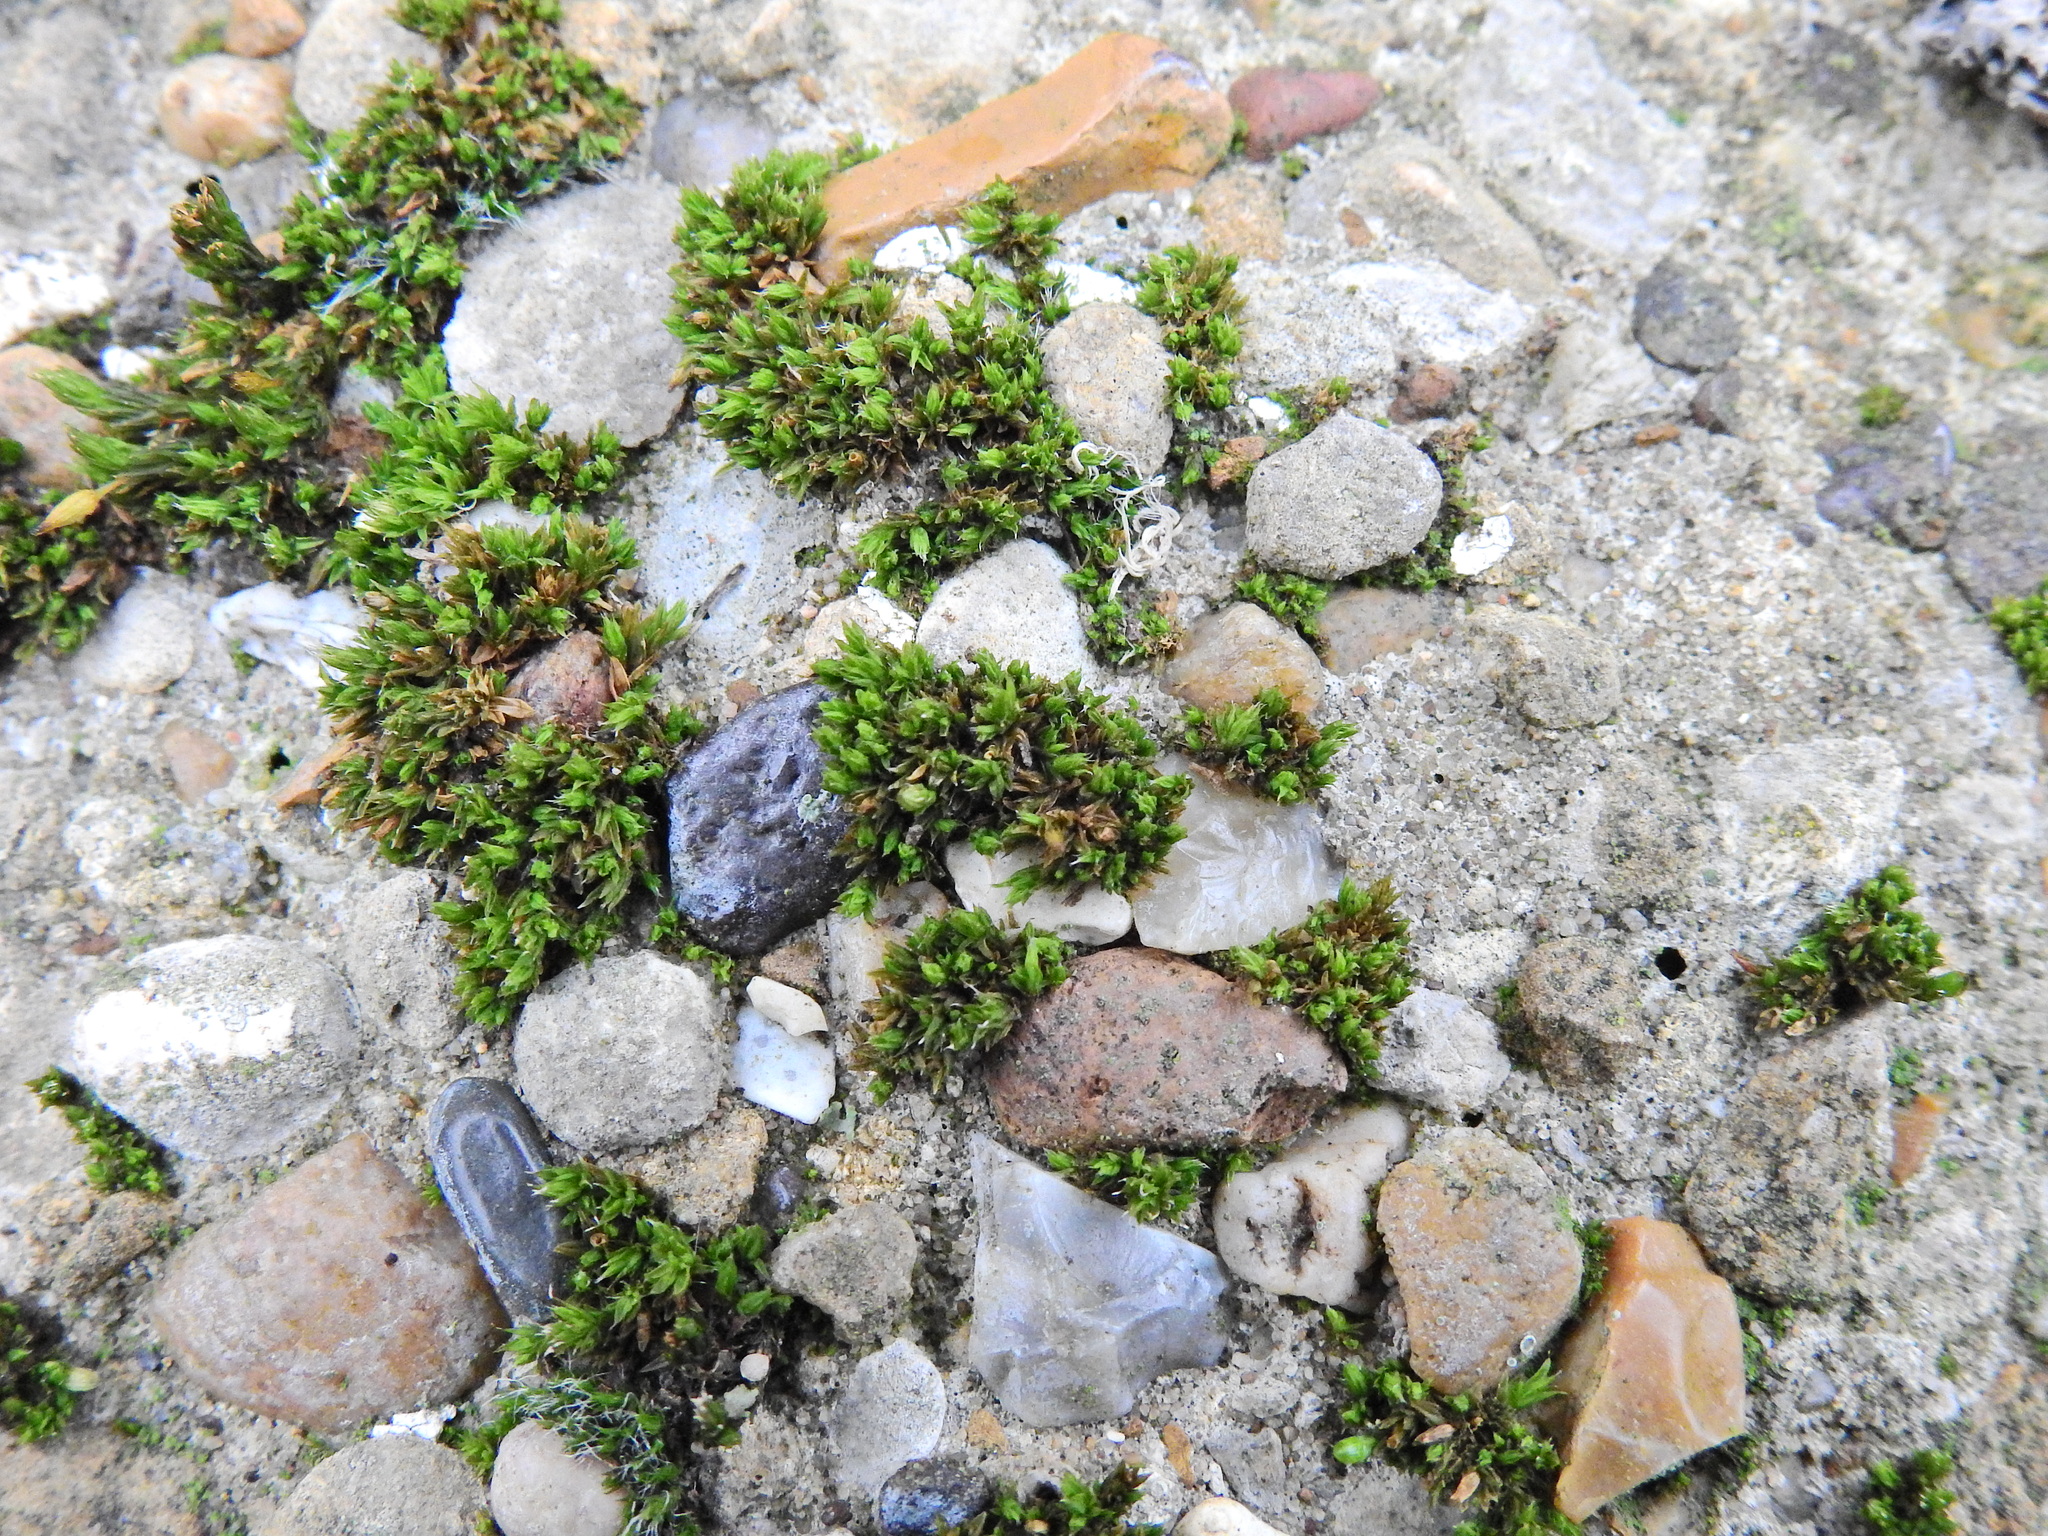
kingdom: Plantae
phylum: Bryophyta
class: Bryopsida
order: Orthotrichales
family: Orthotrichaceae
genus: Orthotrichum
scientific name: Orthotrichum anomalum
